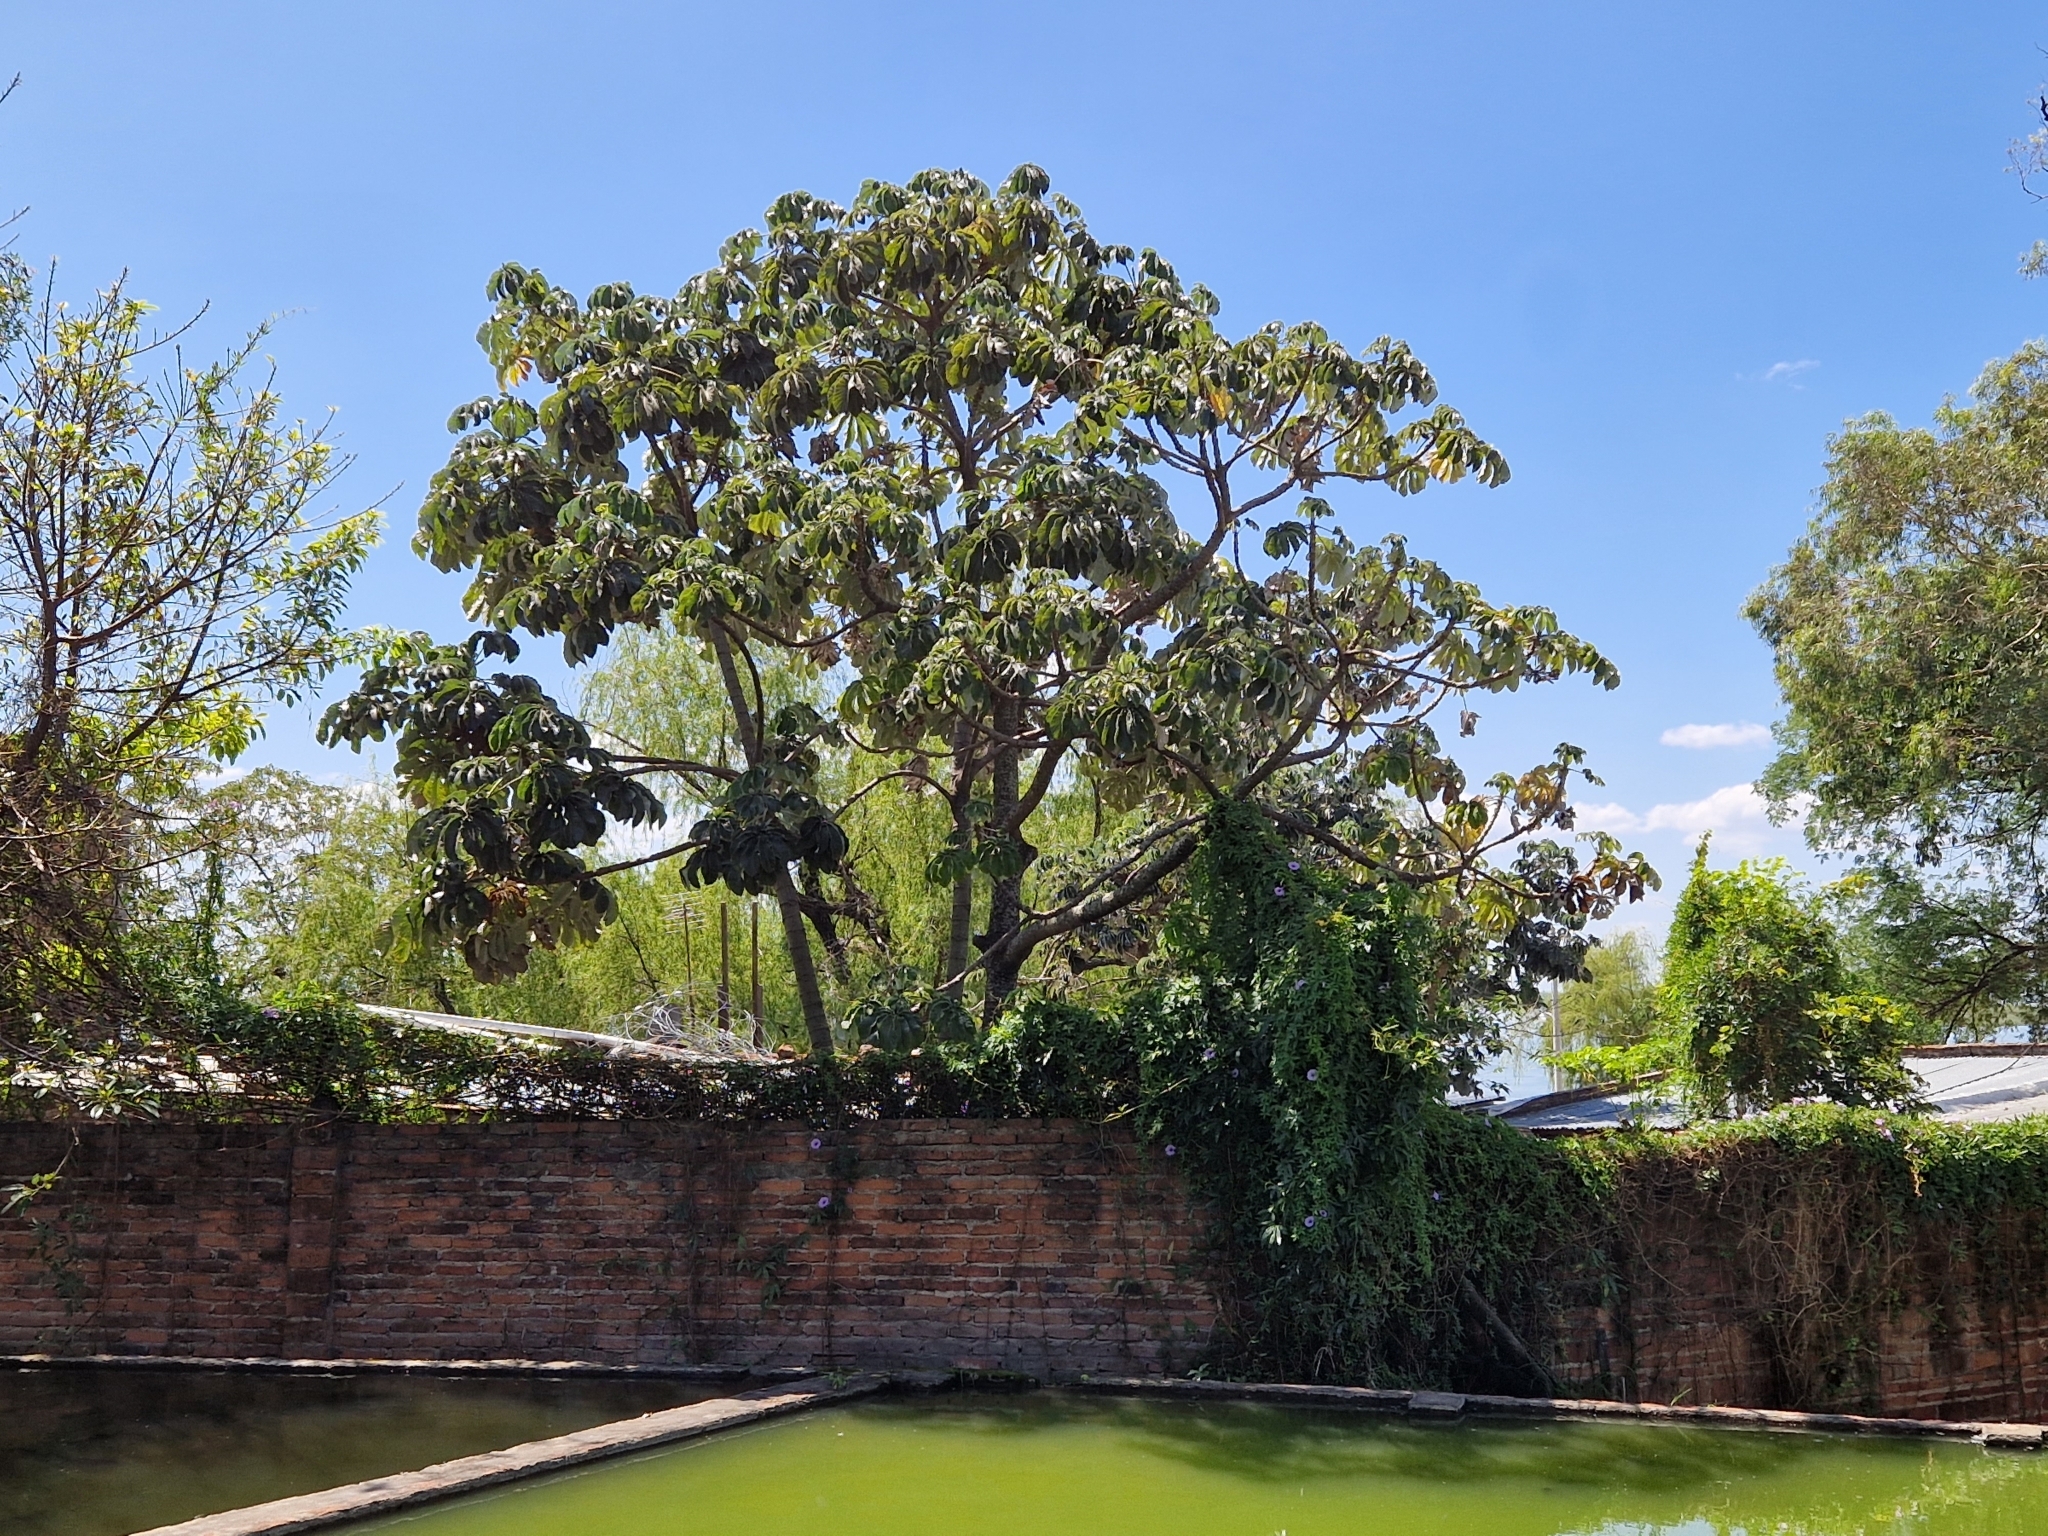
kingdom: Plantae
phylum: Tracheophyta
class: Magnoliopsida
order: Rosales
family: Urticaceae
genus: Cecropia
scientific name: Cecropia pachystachya
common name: Ambay pumpwood
